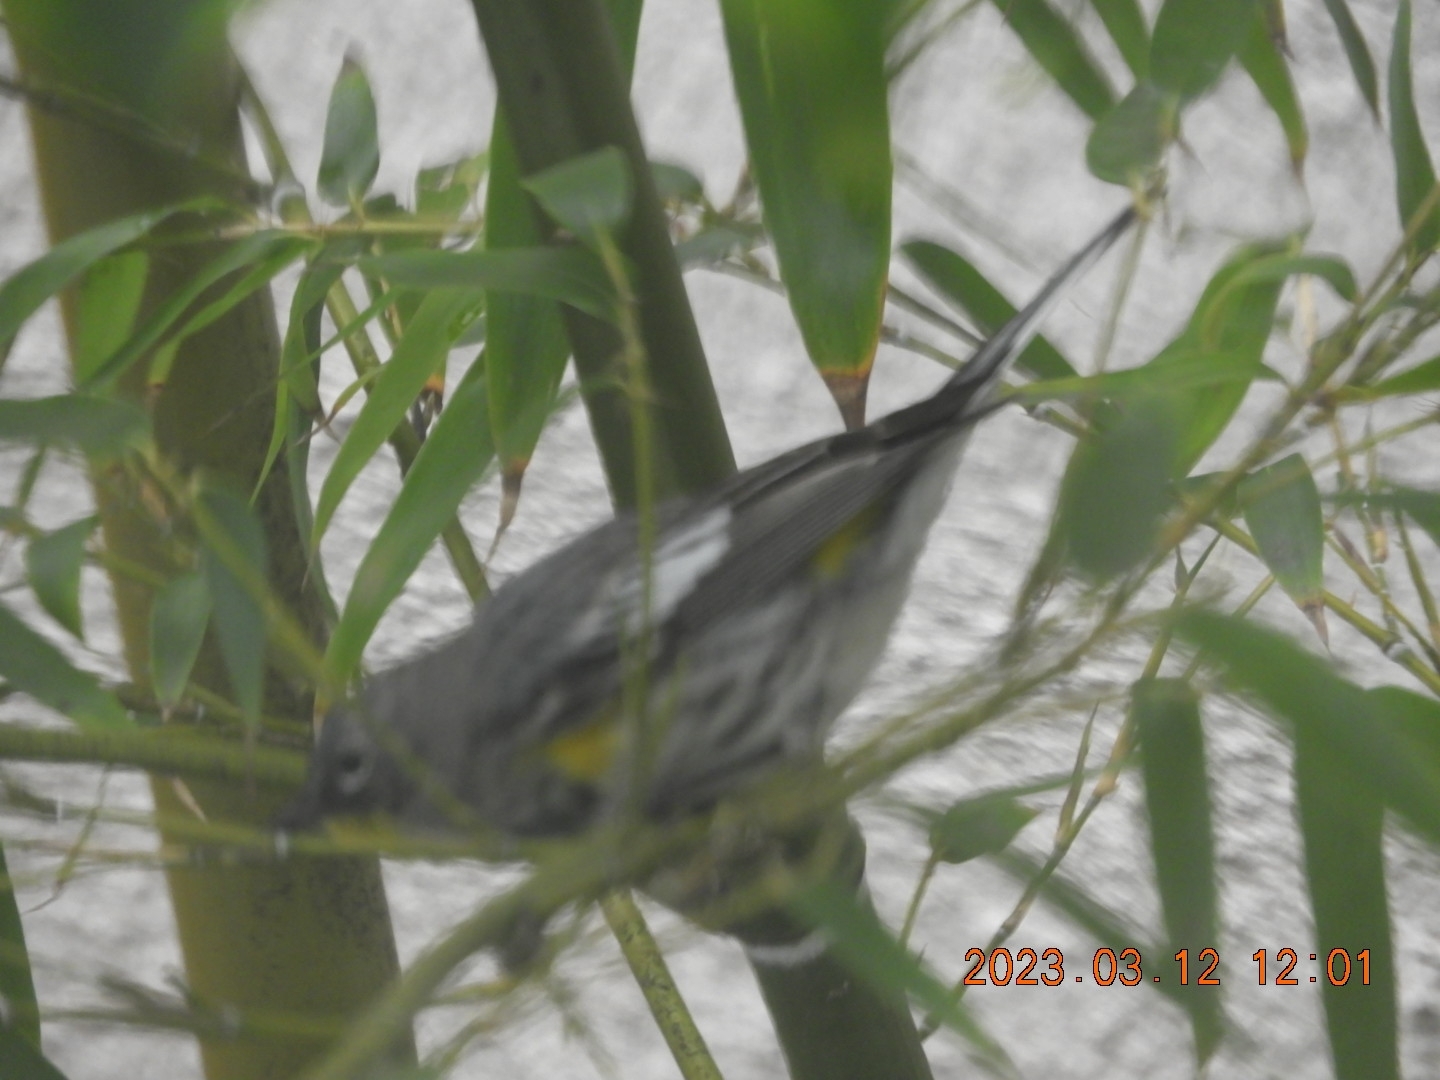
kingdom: Animalia
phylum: Chordata
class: Aves
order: Passeriformes
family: Parulidae
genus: Setophaga
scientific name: Setophaga auduboni
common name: Audubon's warbler
